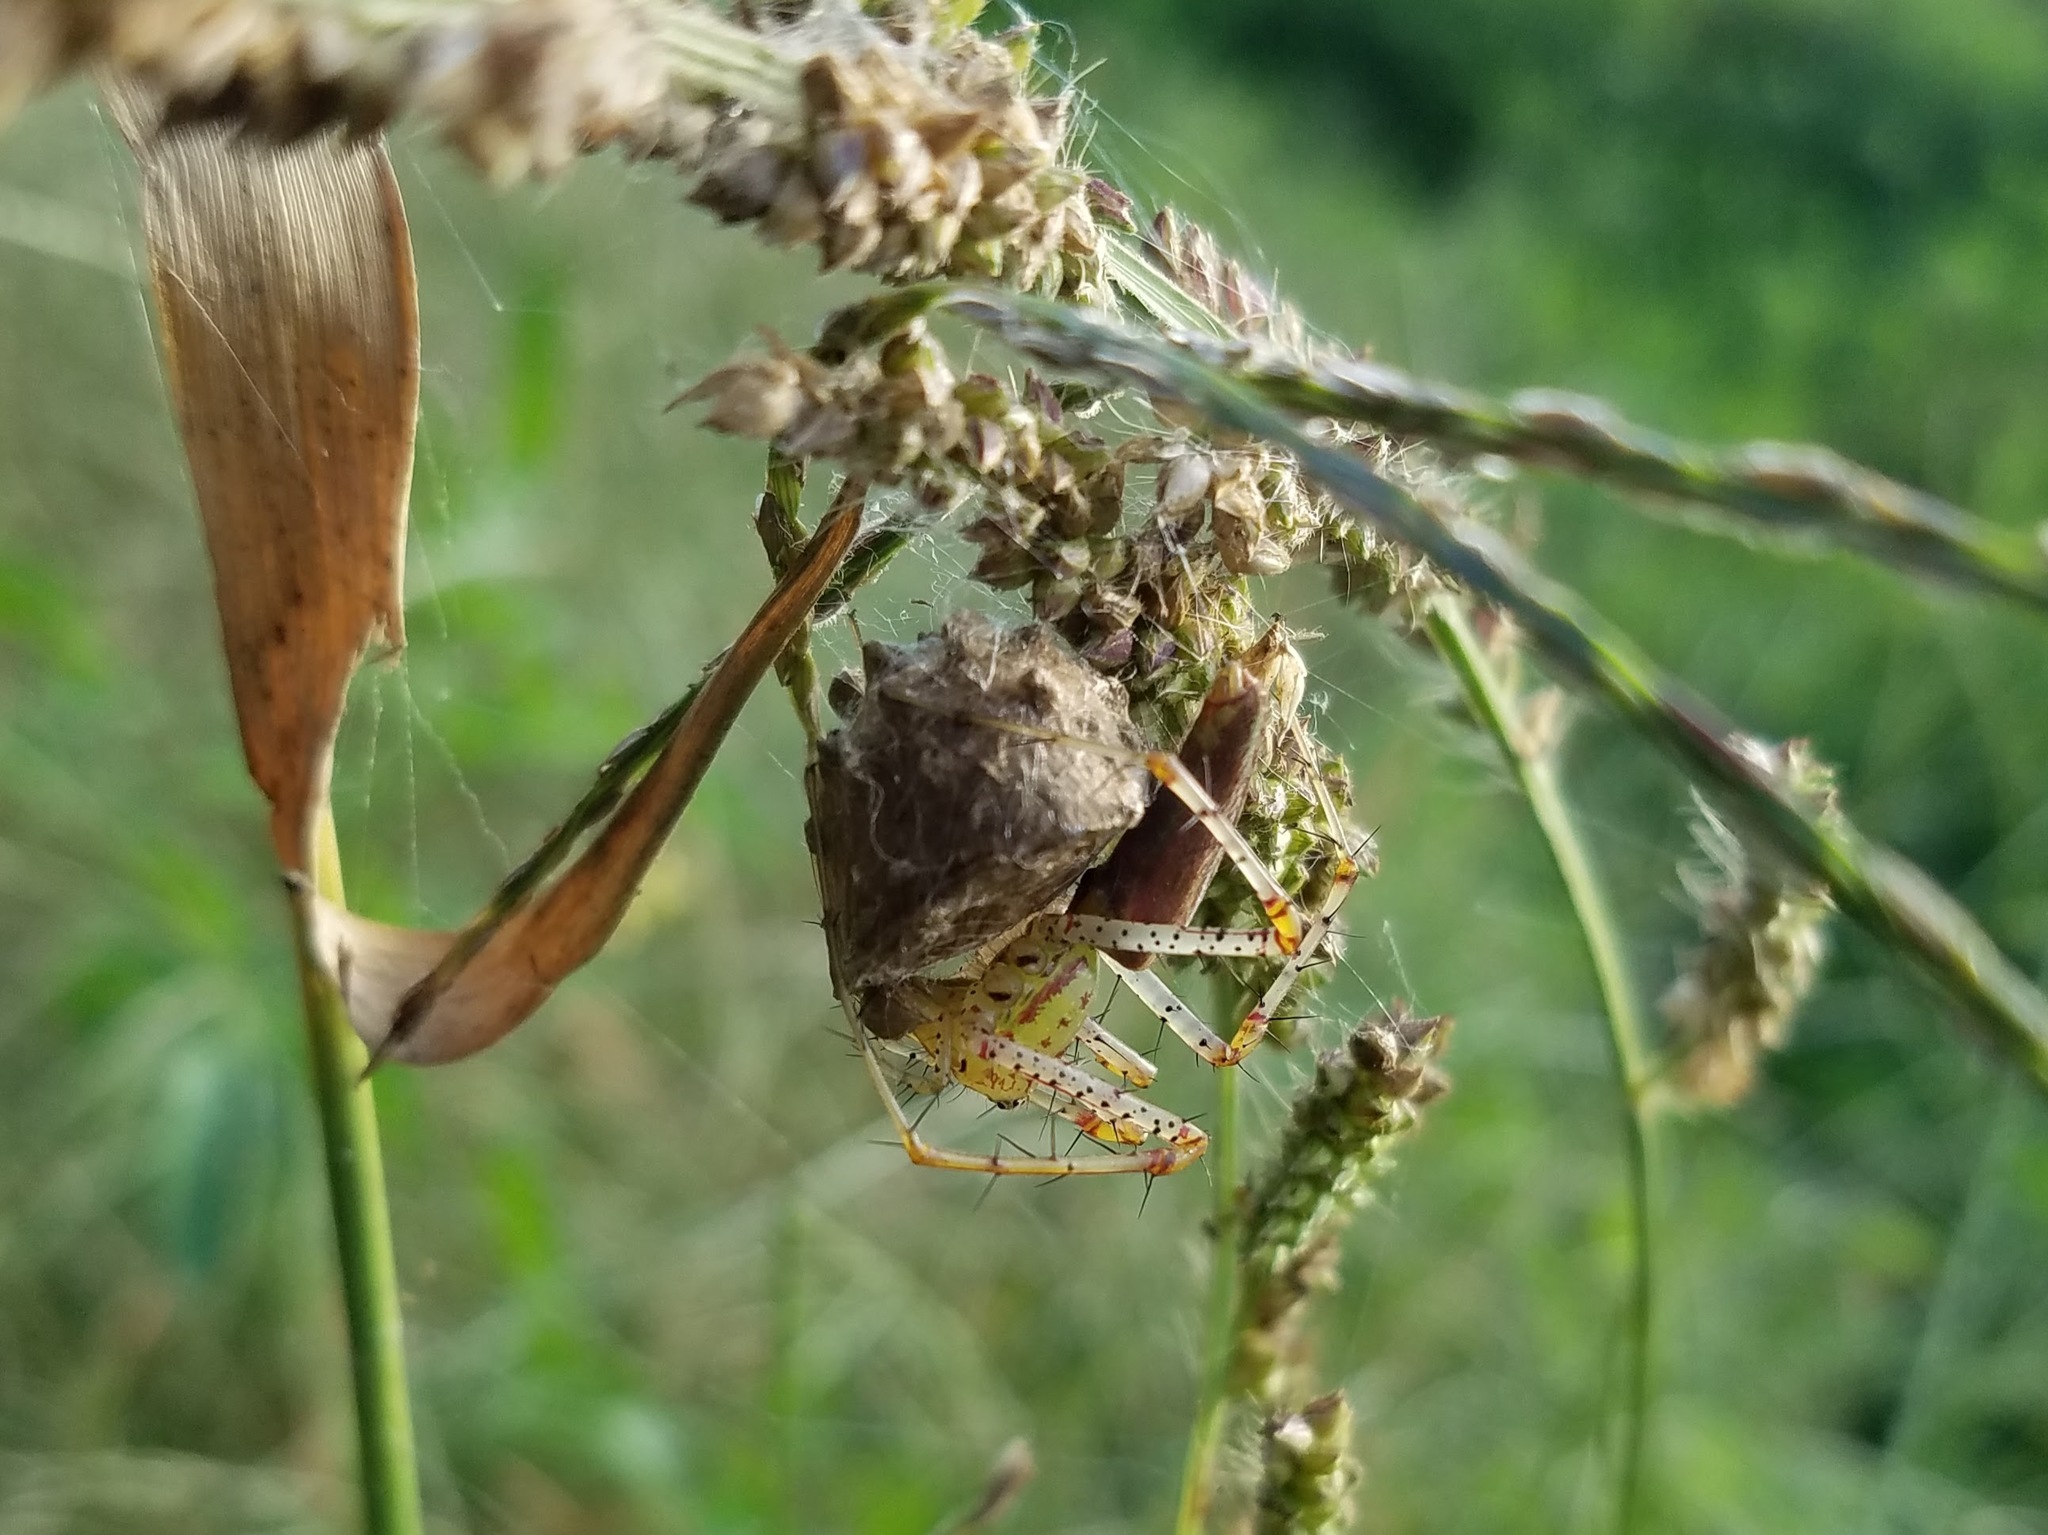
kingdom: Animalia
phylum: Arthropoda
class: Arachnida
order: Araneae
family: Oxyopidae
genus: Peucetia
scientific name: Peucetia viridans
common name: Lynx spiders
